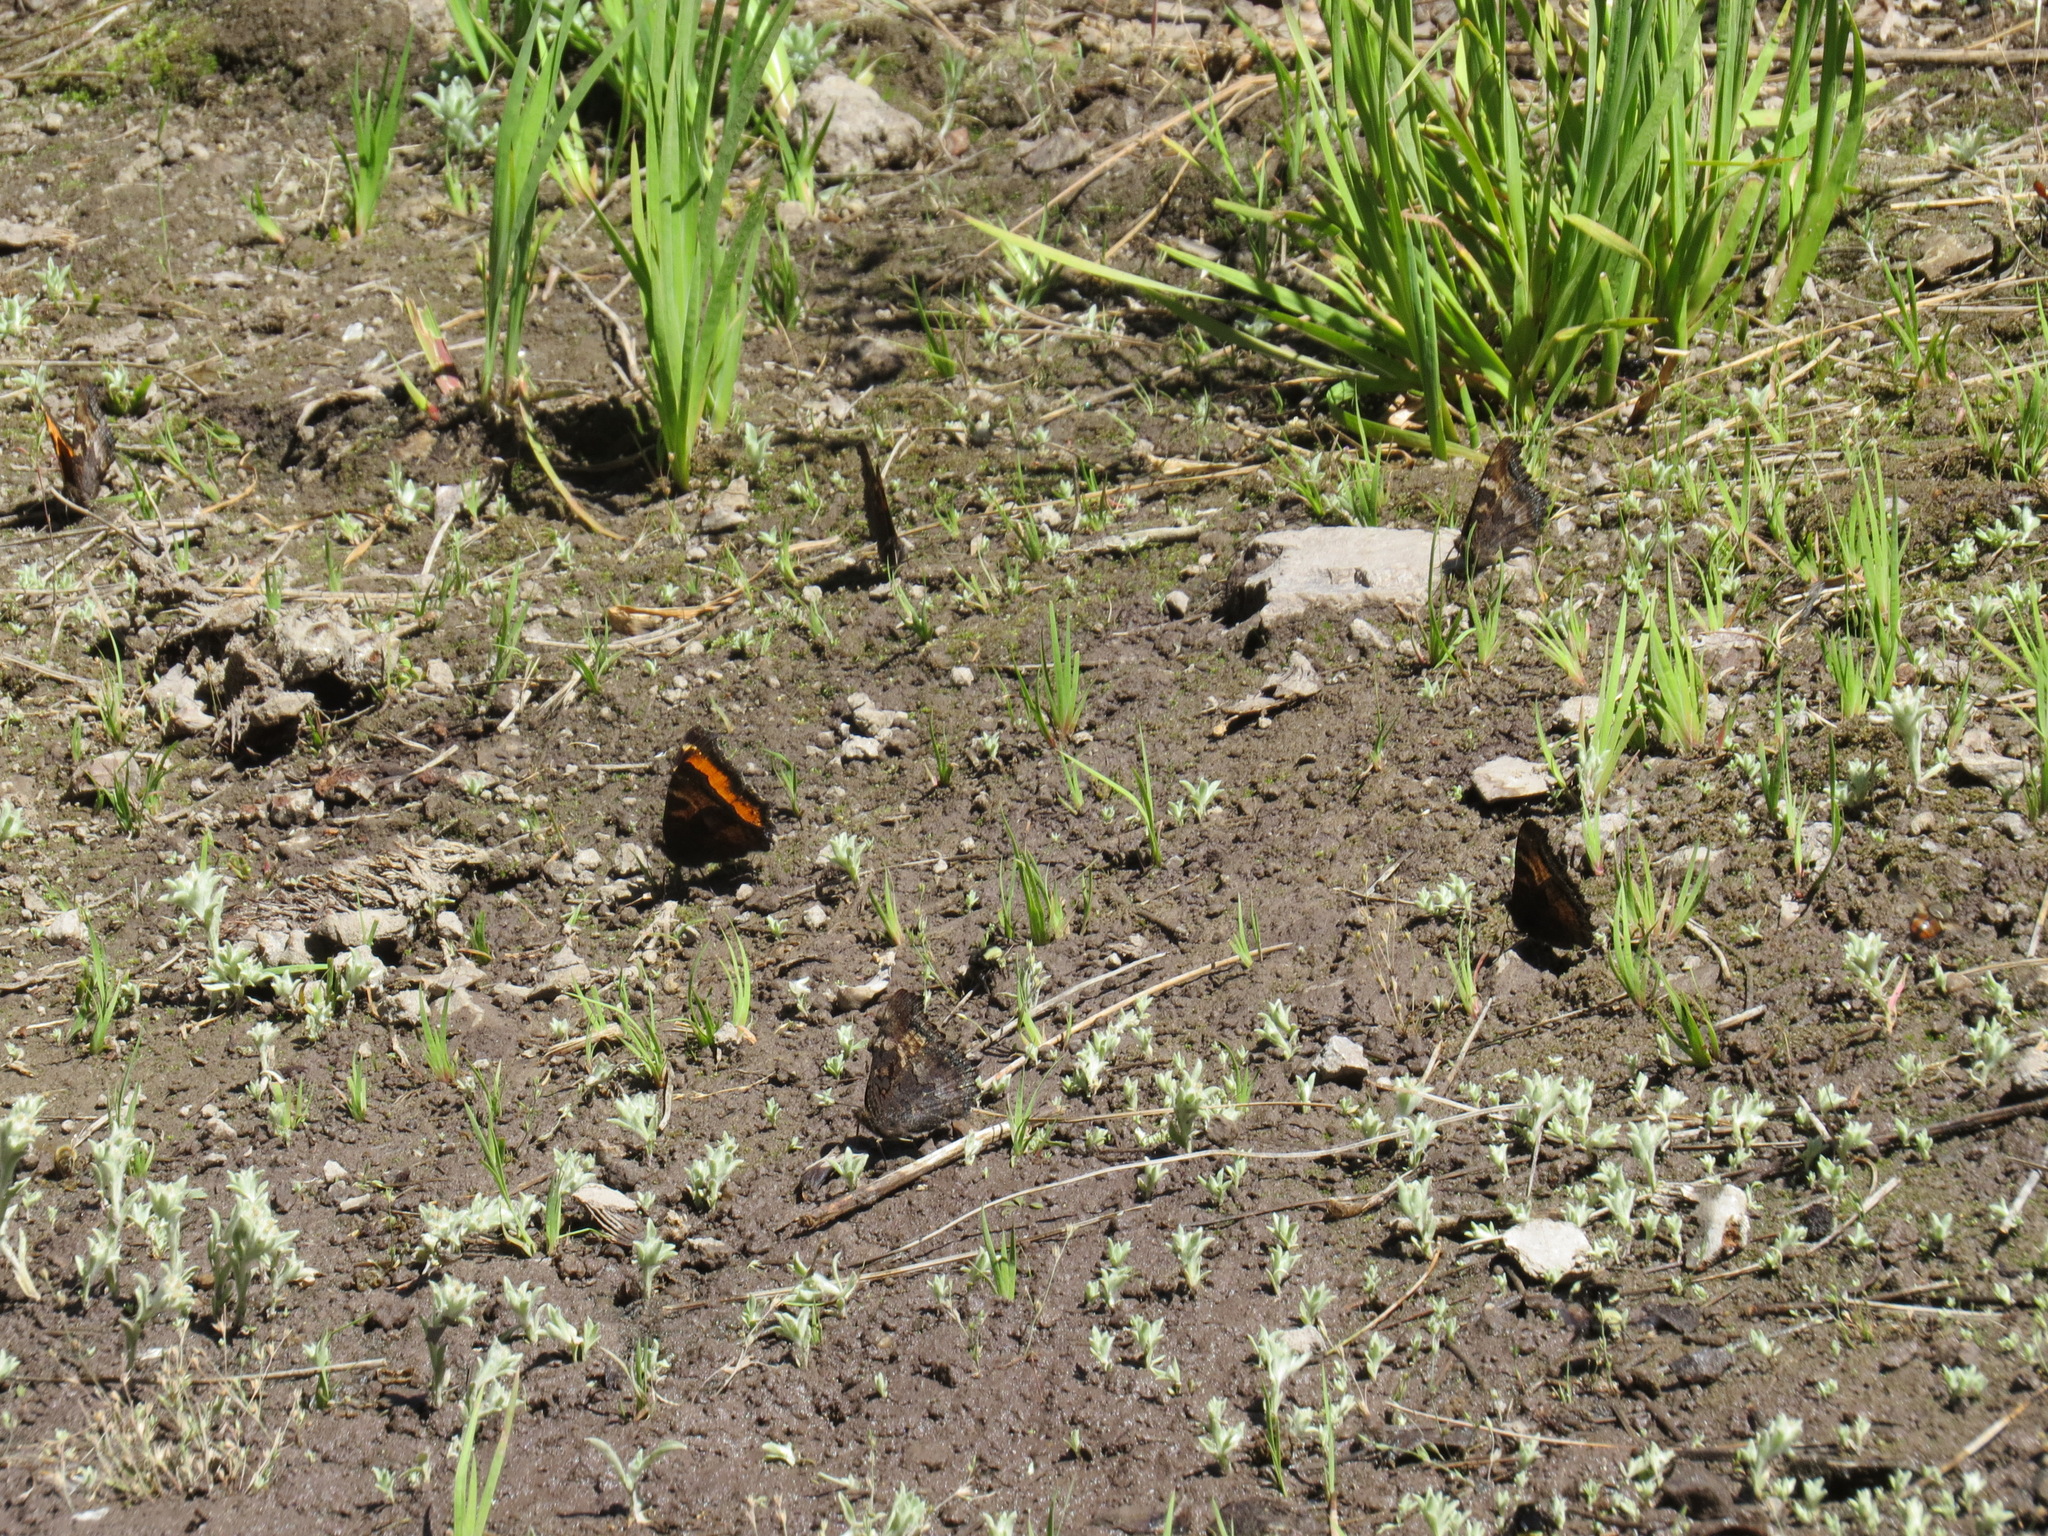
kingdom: Animalia
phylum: Arthropoda
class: Insecta
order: Lepidoptera
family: Nymphalidae
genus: Nymphalis
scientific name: Nymphalis californica
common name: California tortoiseshell
